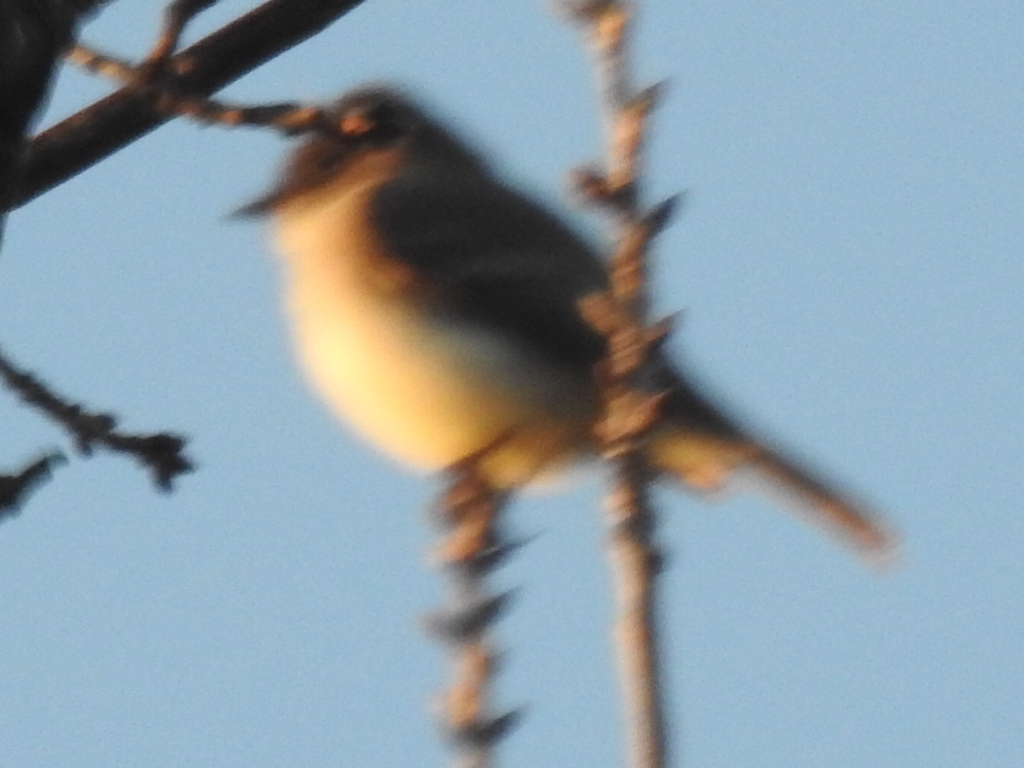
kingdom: Animalia
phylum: Chordata
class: Aves
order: Passeriformes
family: Tyrannidae
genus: Sayornis
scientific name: Sayornis phoebe
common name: Eastern phoebe
